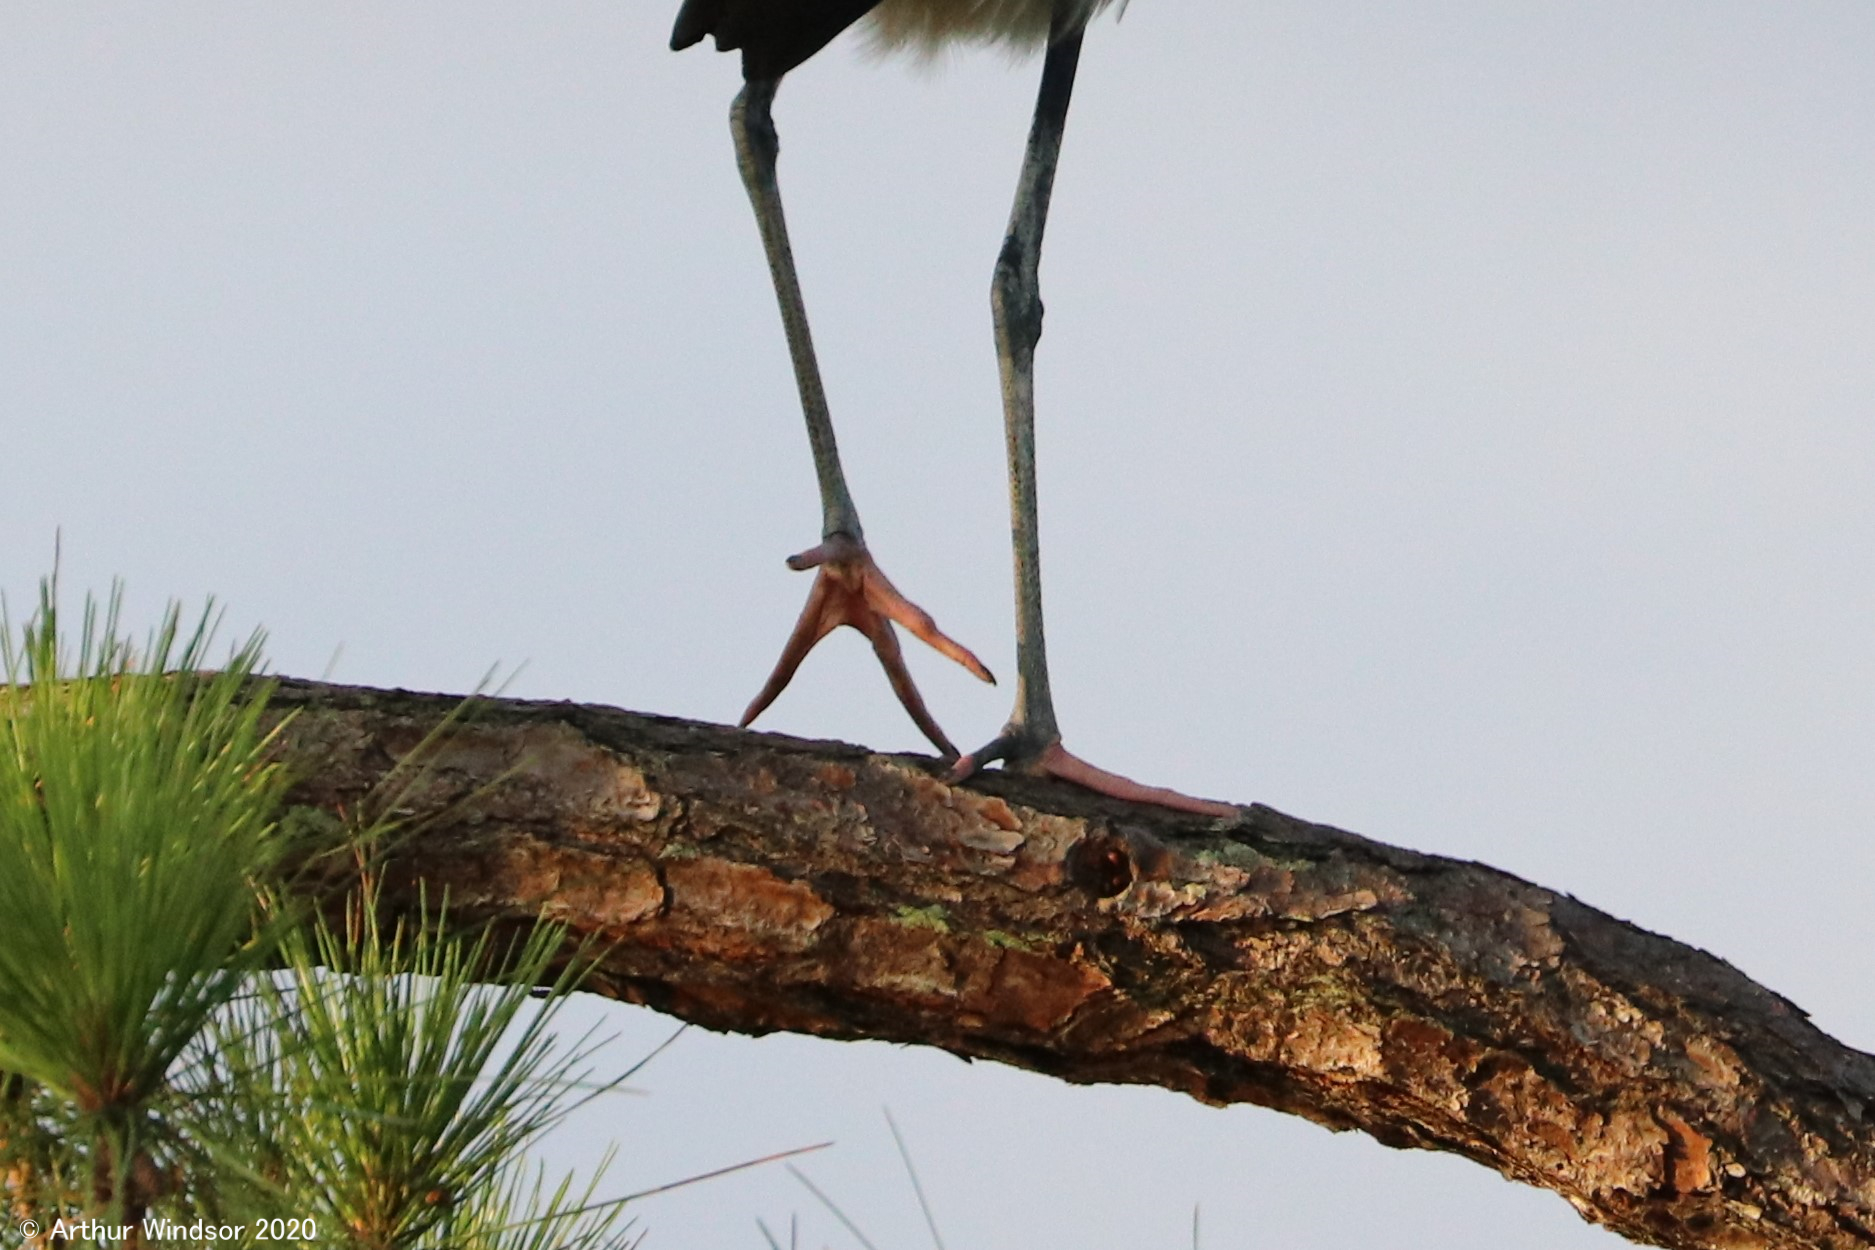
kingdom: Animalia
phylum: Chordata
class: Aves
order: Ciconiiformes
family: Ciconiidae
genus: Mycteria
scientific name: Mycteria americana
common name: Wood stork
